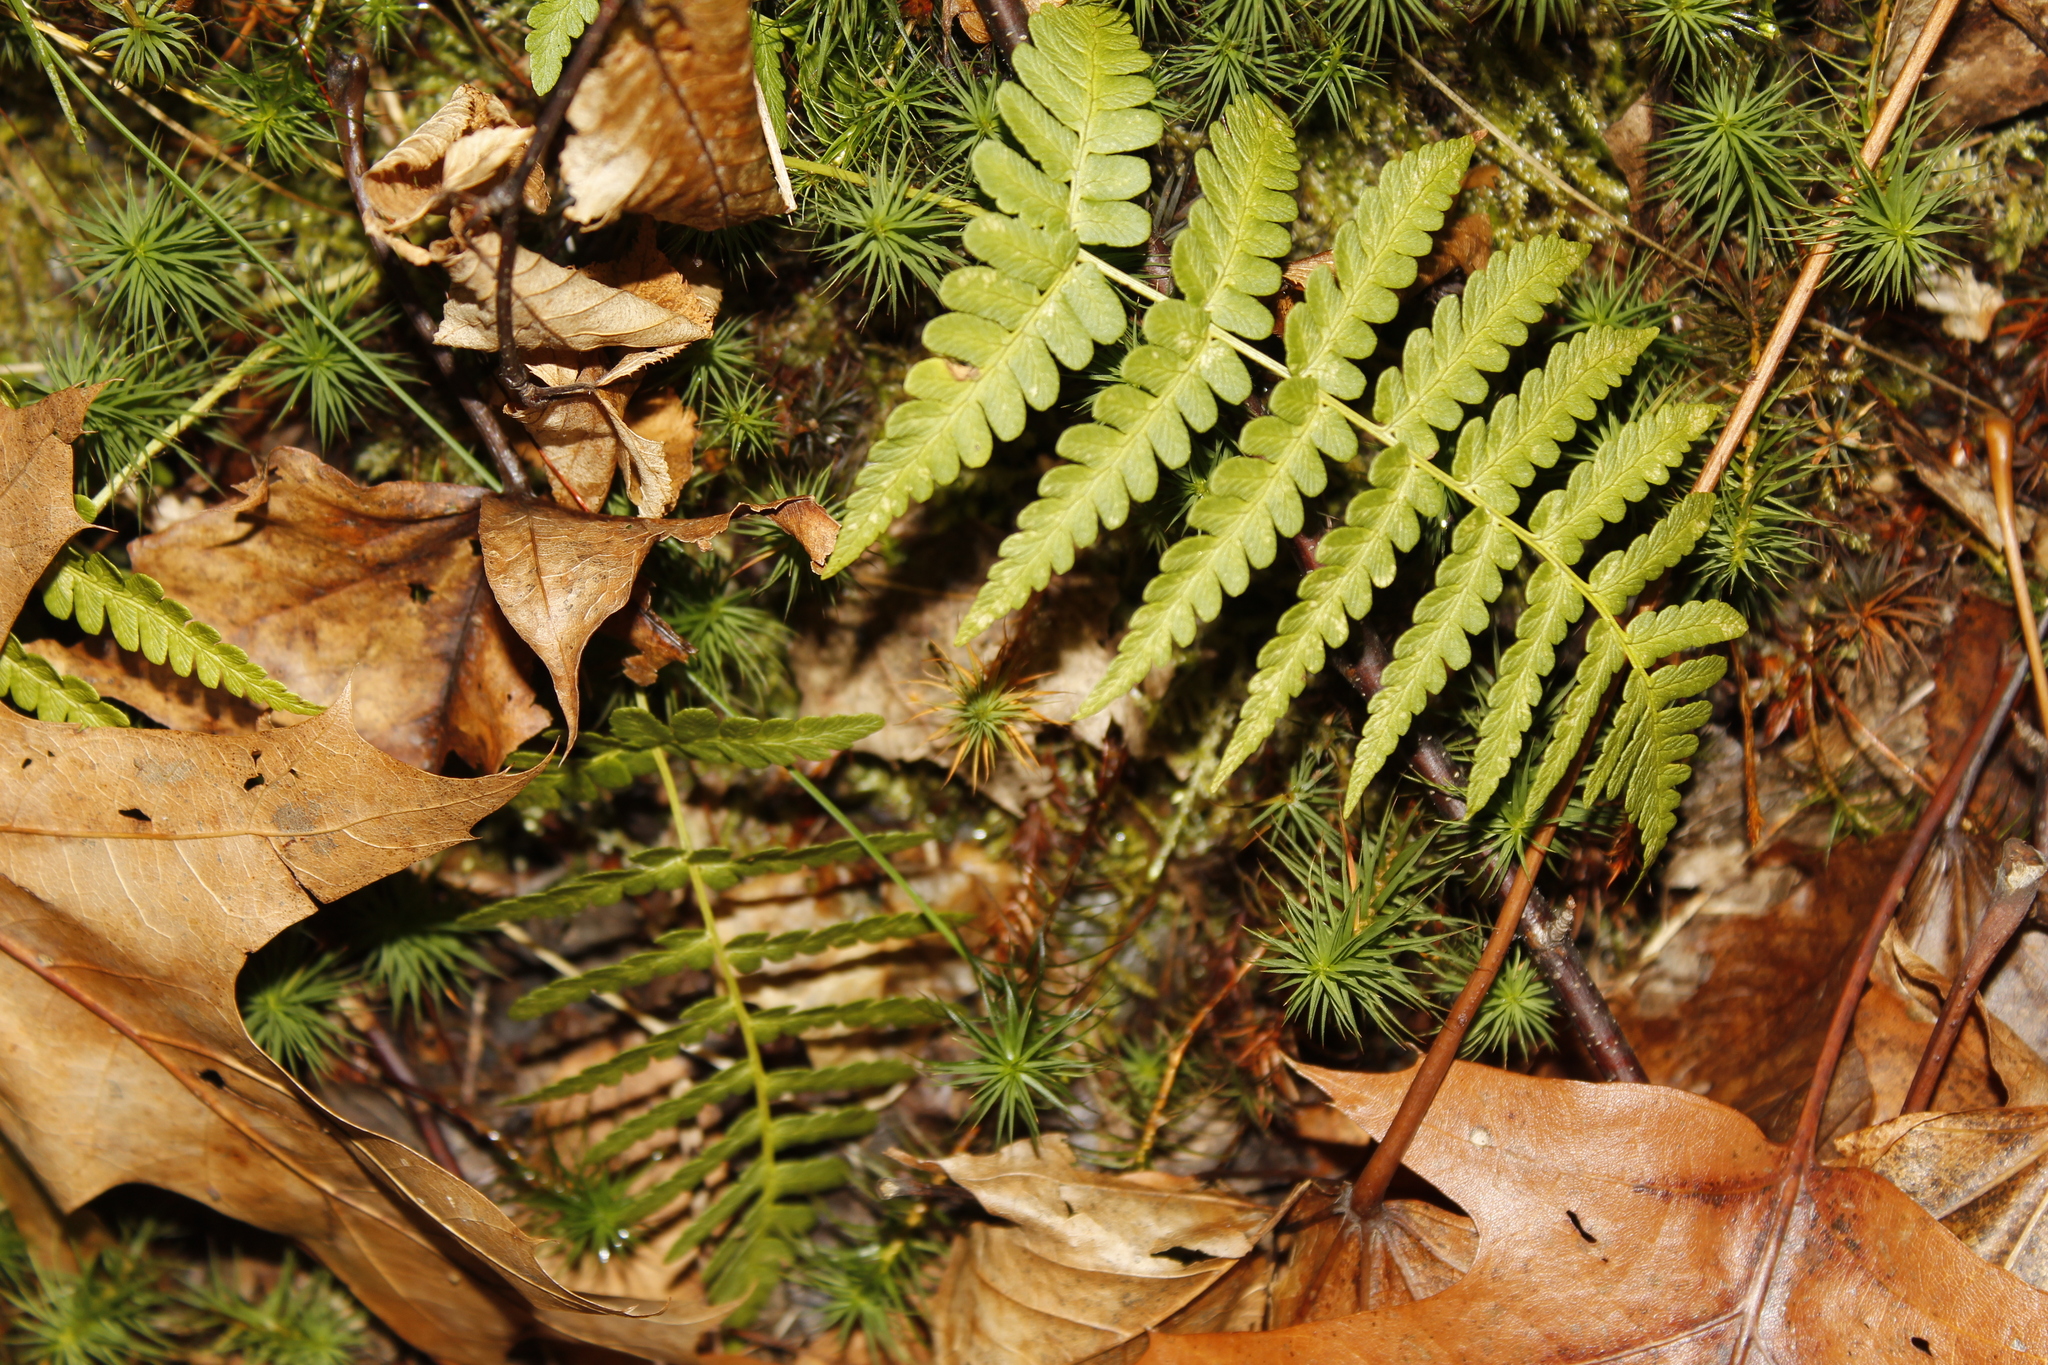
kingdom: Plantae
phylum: Tracheophyta
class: Polypodiopsida
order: Polypodiales
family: Dryopteridaceae
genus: Dryopteris
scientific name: Dryopteris marginalis
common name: Marginal wood fern
